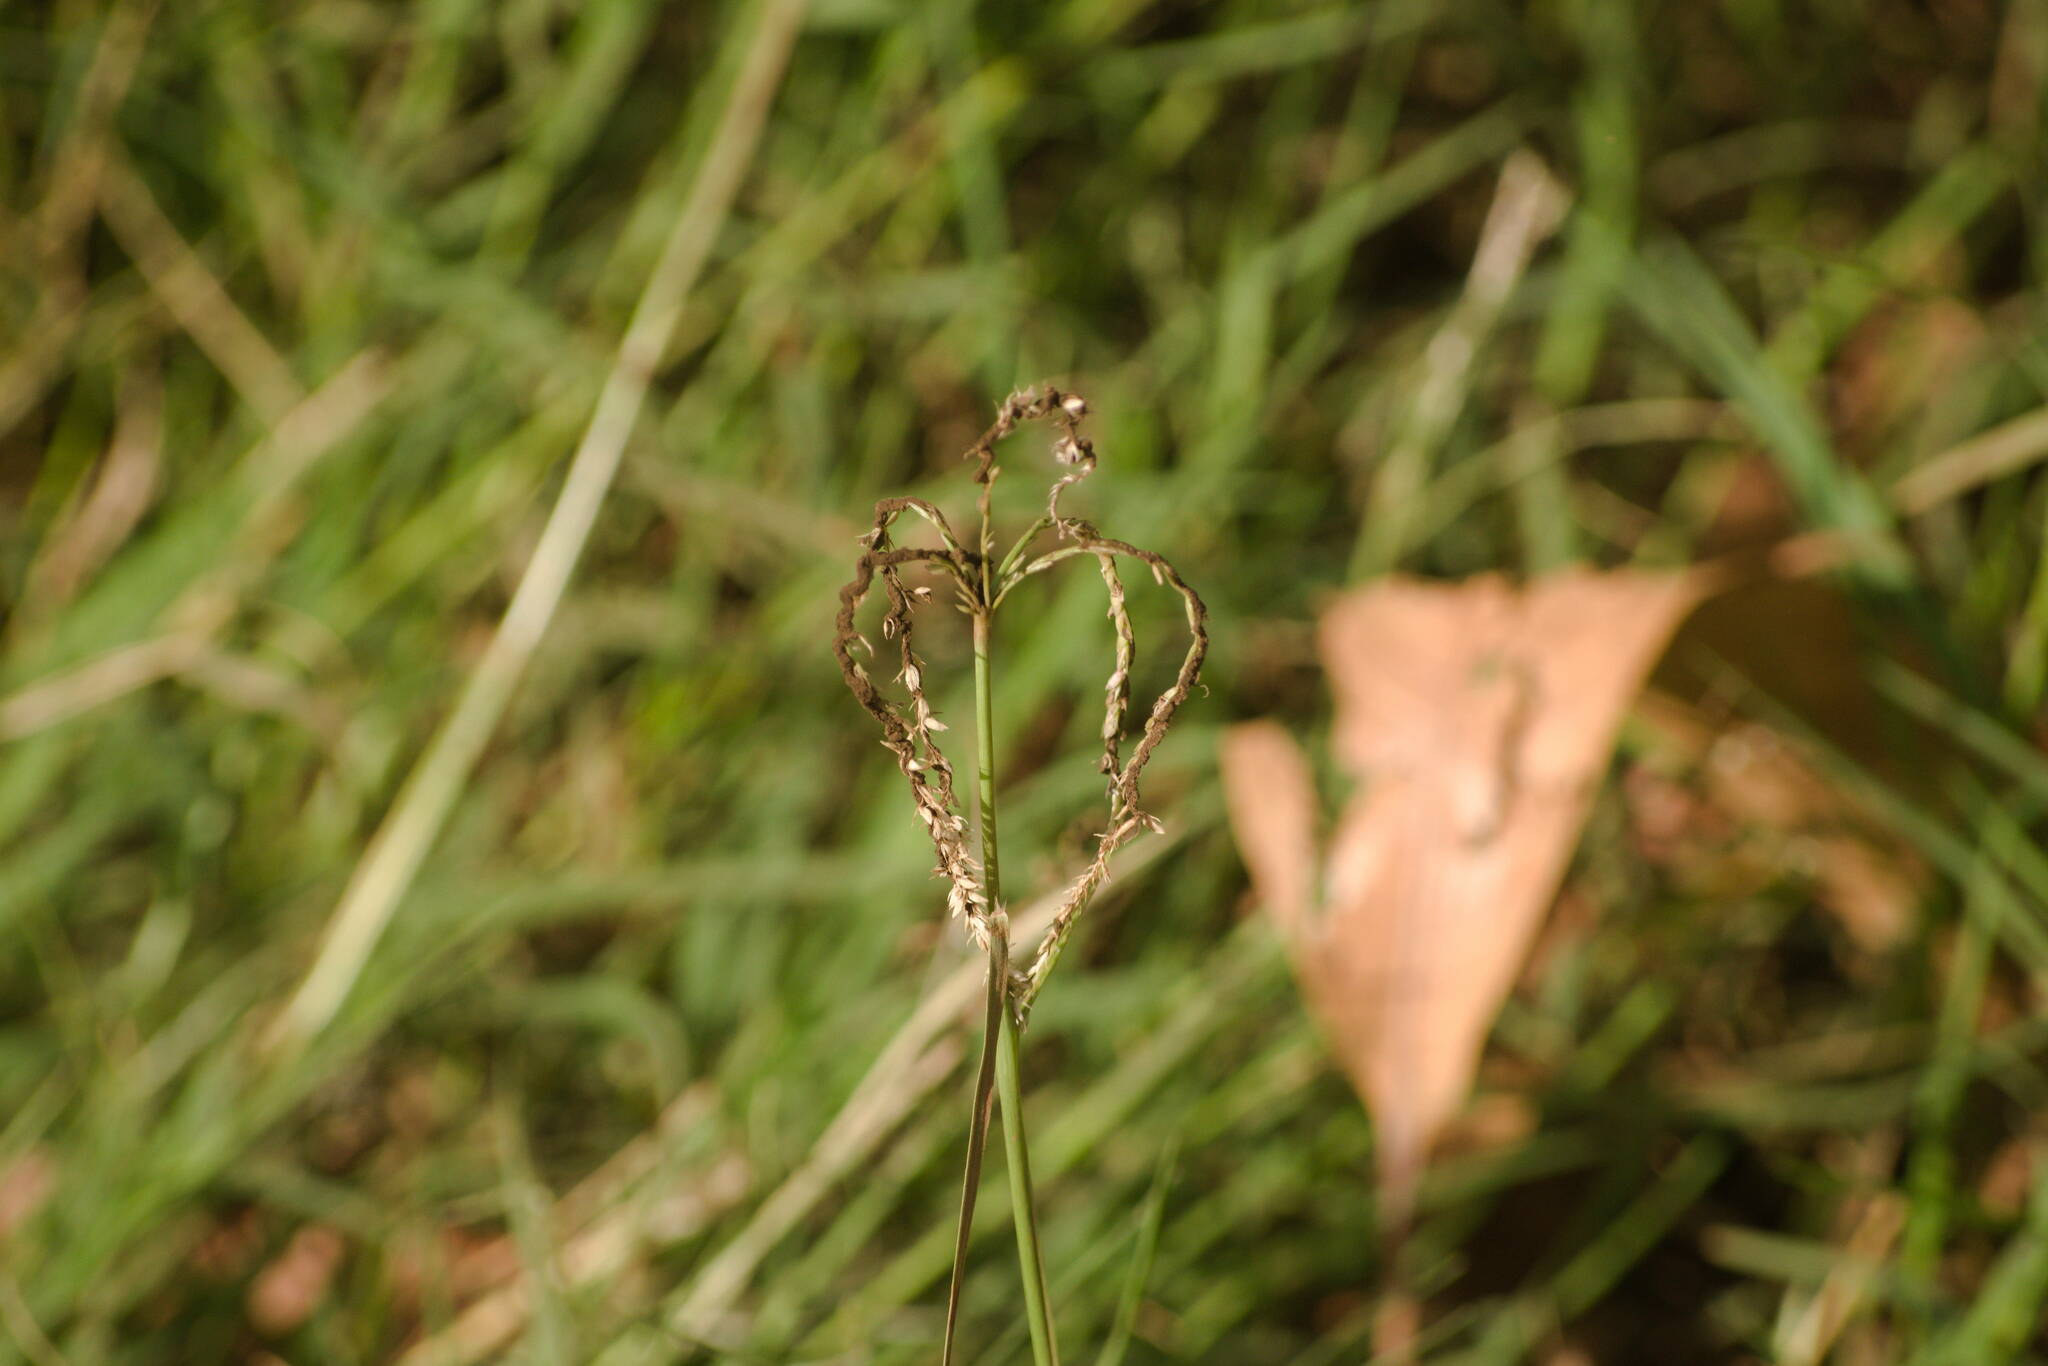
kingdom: Fungi
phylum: Basidiomycota
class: Ustilaginomycetes
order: Ustilaginales
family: Ustilaginaceae
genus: Ustilago
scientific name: Ustilago cynodontis
